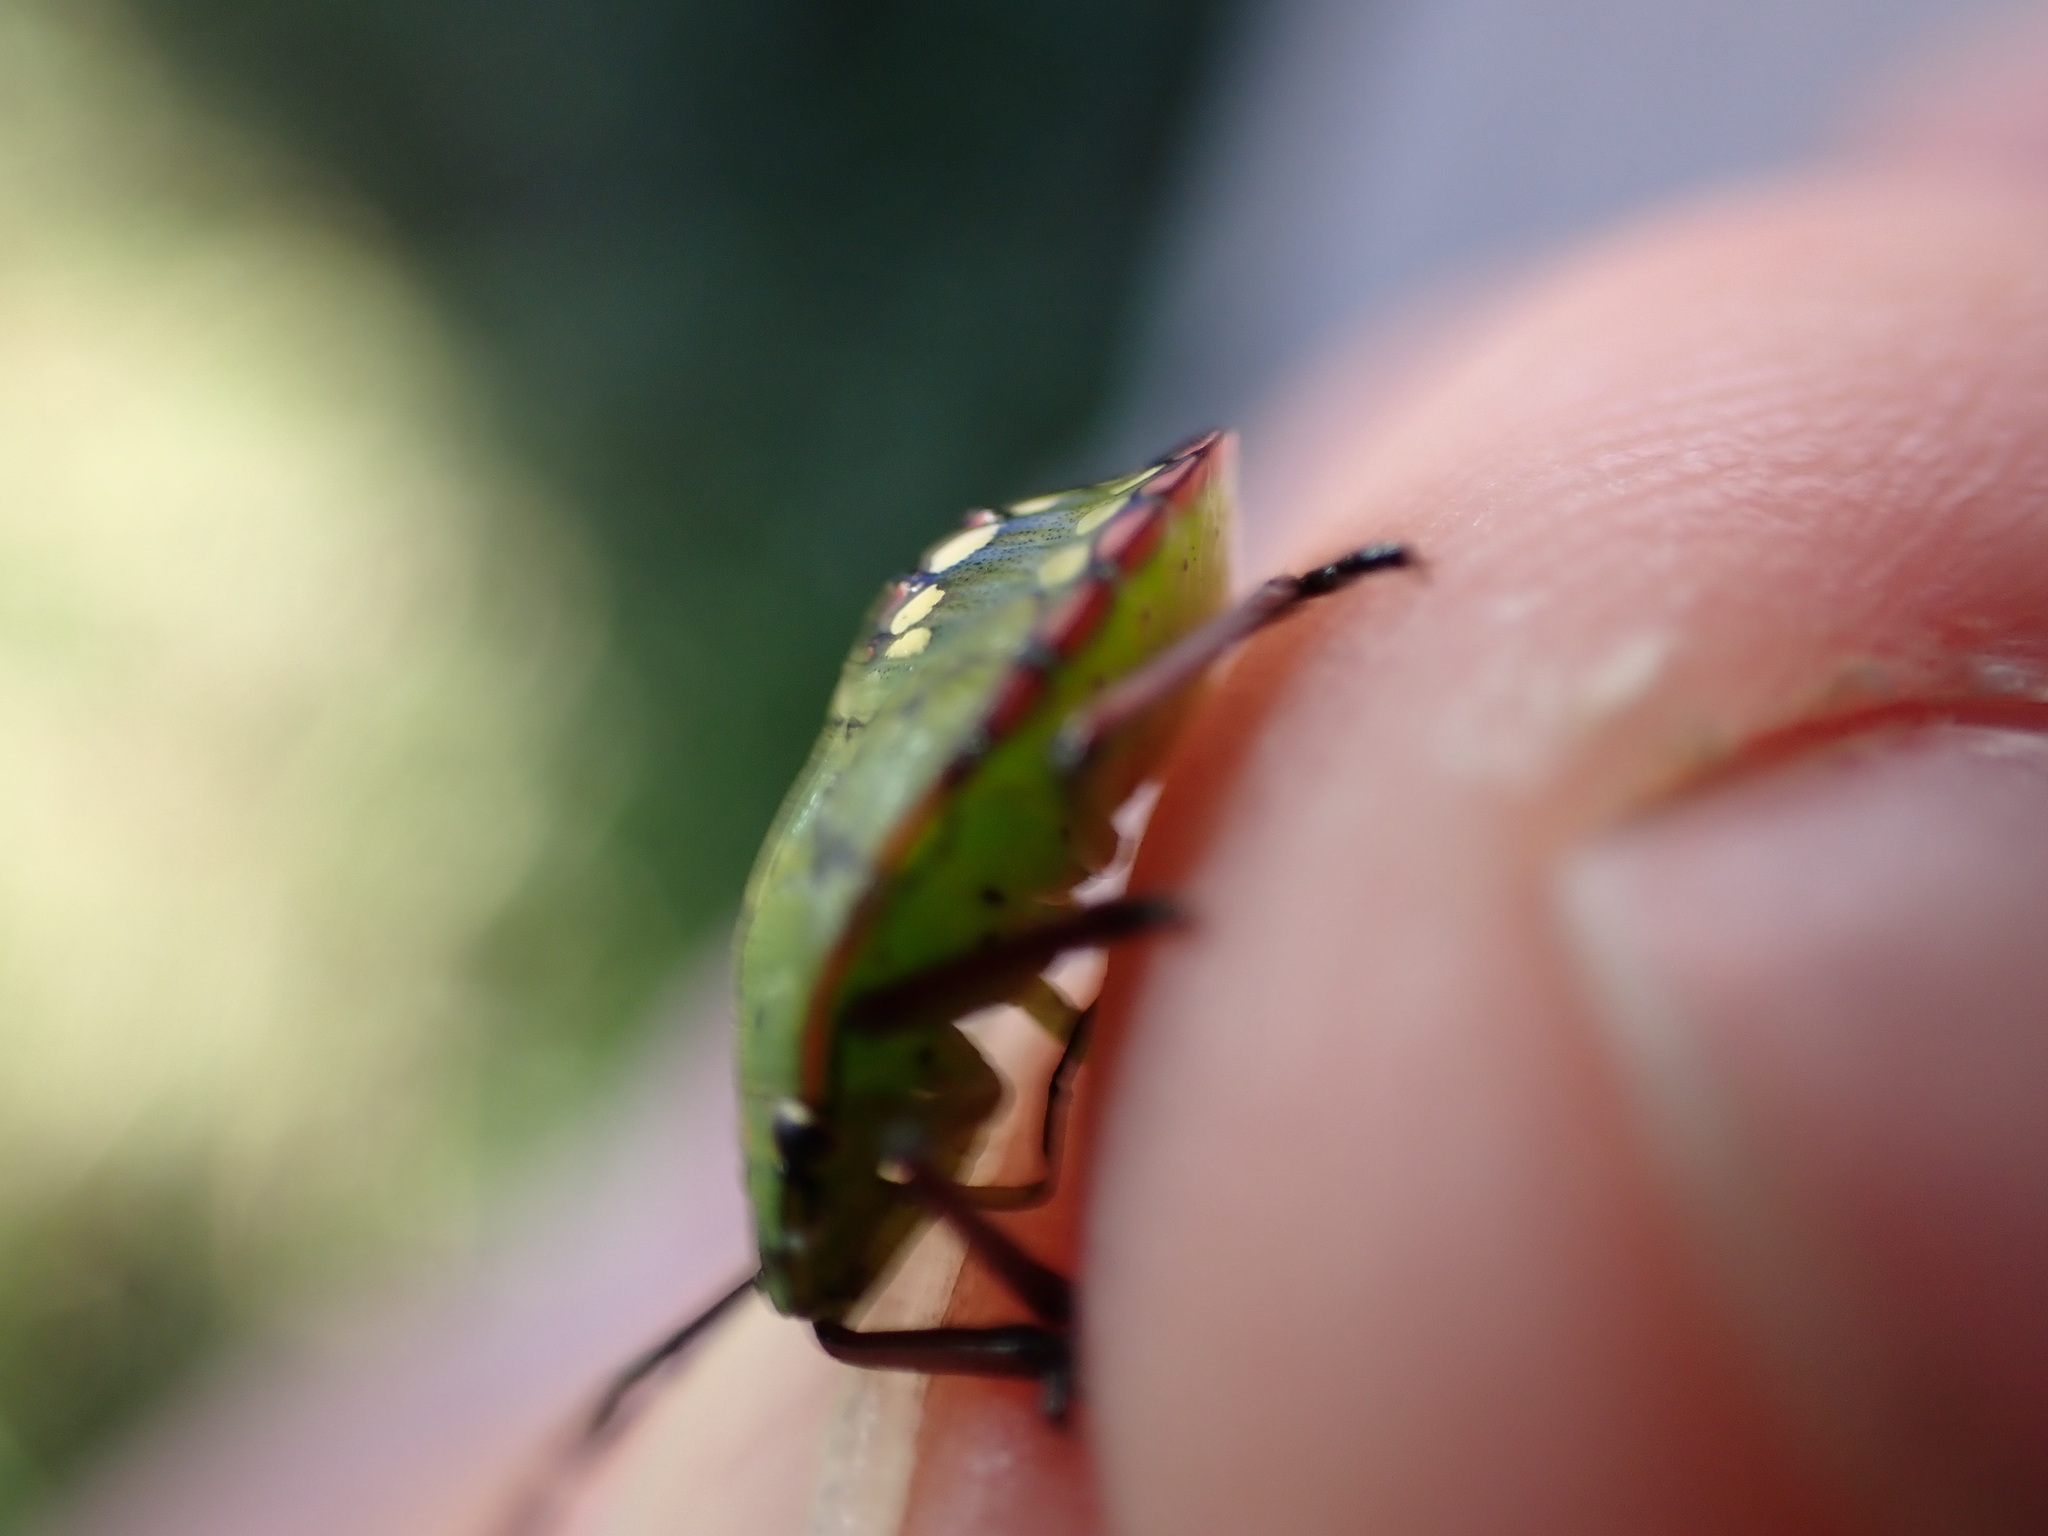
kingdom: Animalia
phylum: Arthropoda
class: Insecta
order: Hemiptera
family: Pentatomidae
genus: Nezara
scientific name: Nezara viridula
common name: Southern green stink bug
